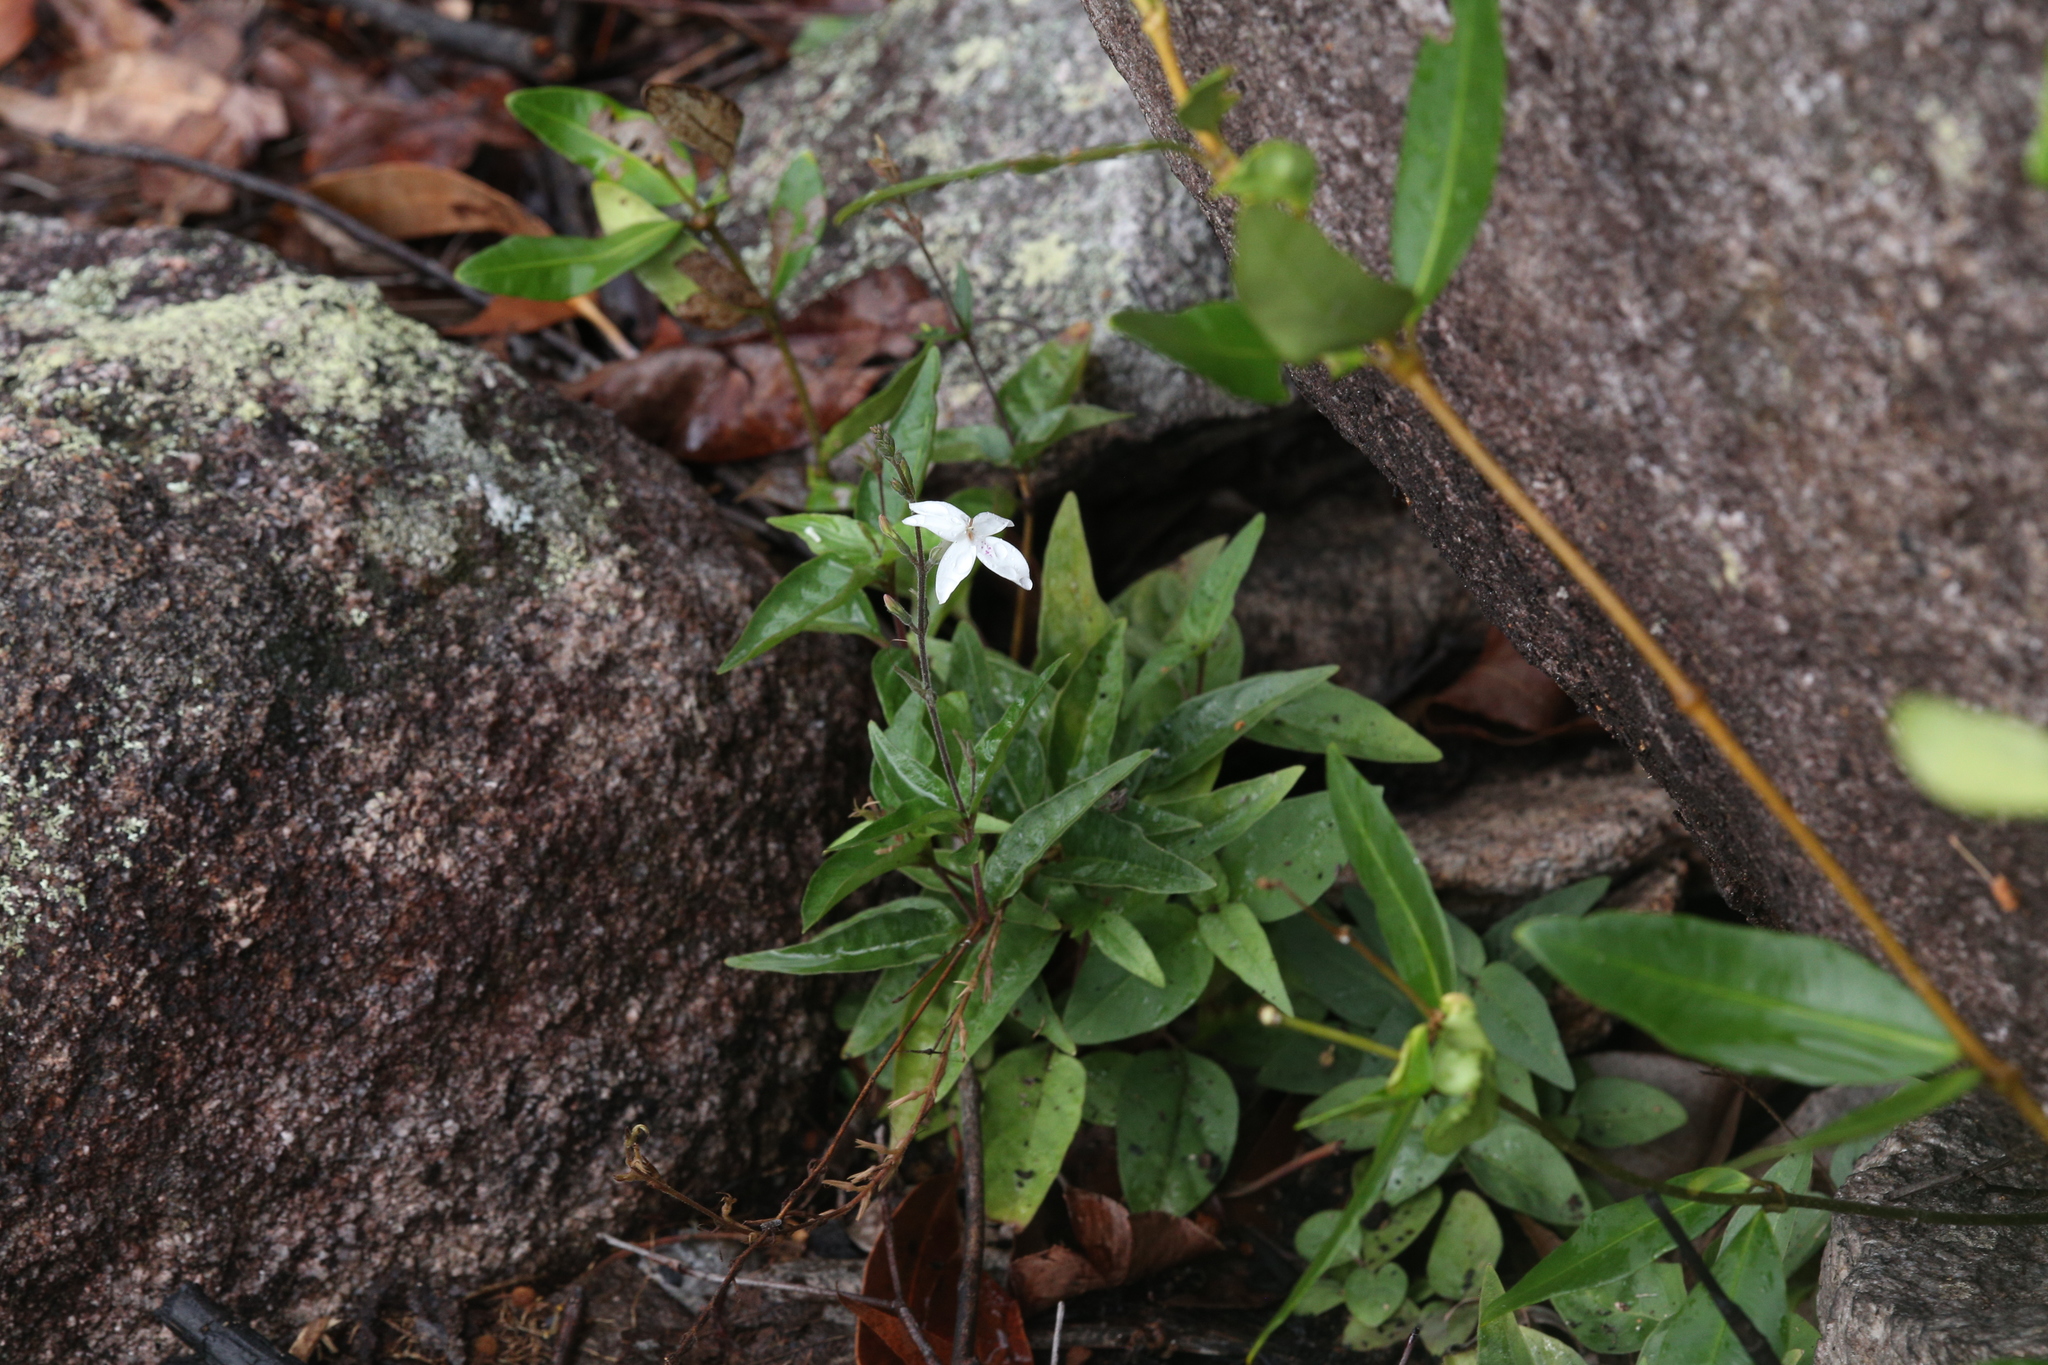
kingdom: Plantae
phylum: Tracheophyta
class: Magnoliopsida
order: Lamiales
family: Acanthaceae
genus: Pseuderanthemum
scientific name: Pseuderanthemum variabile
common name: Night and afternoon
